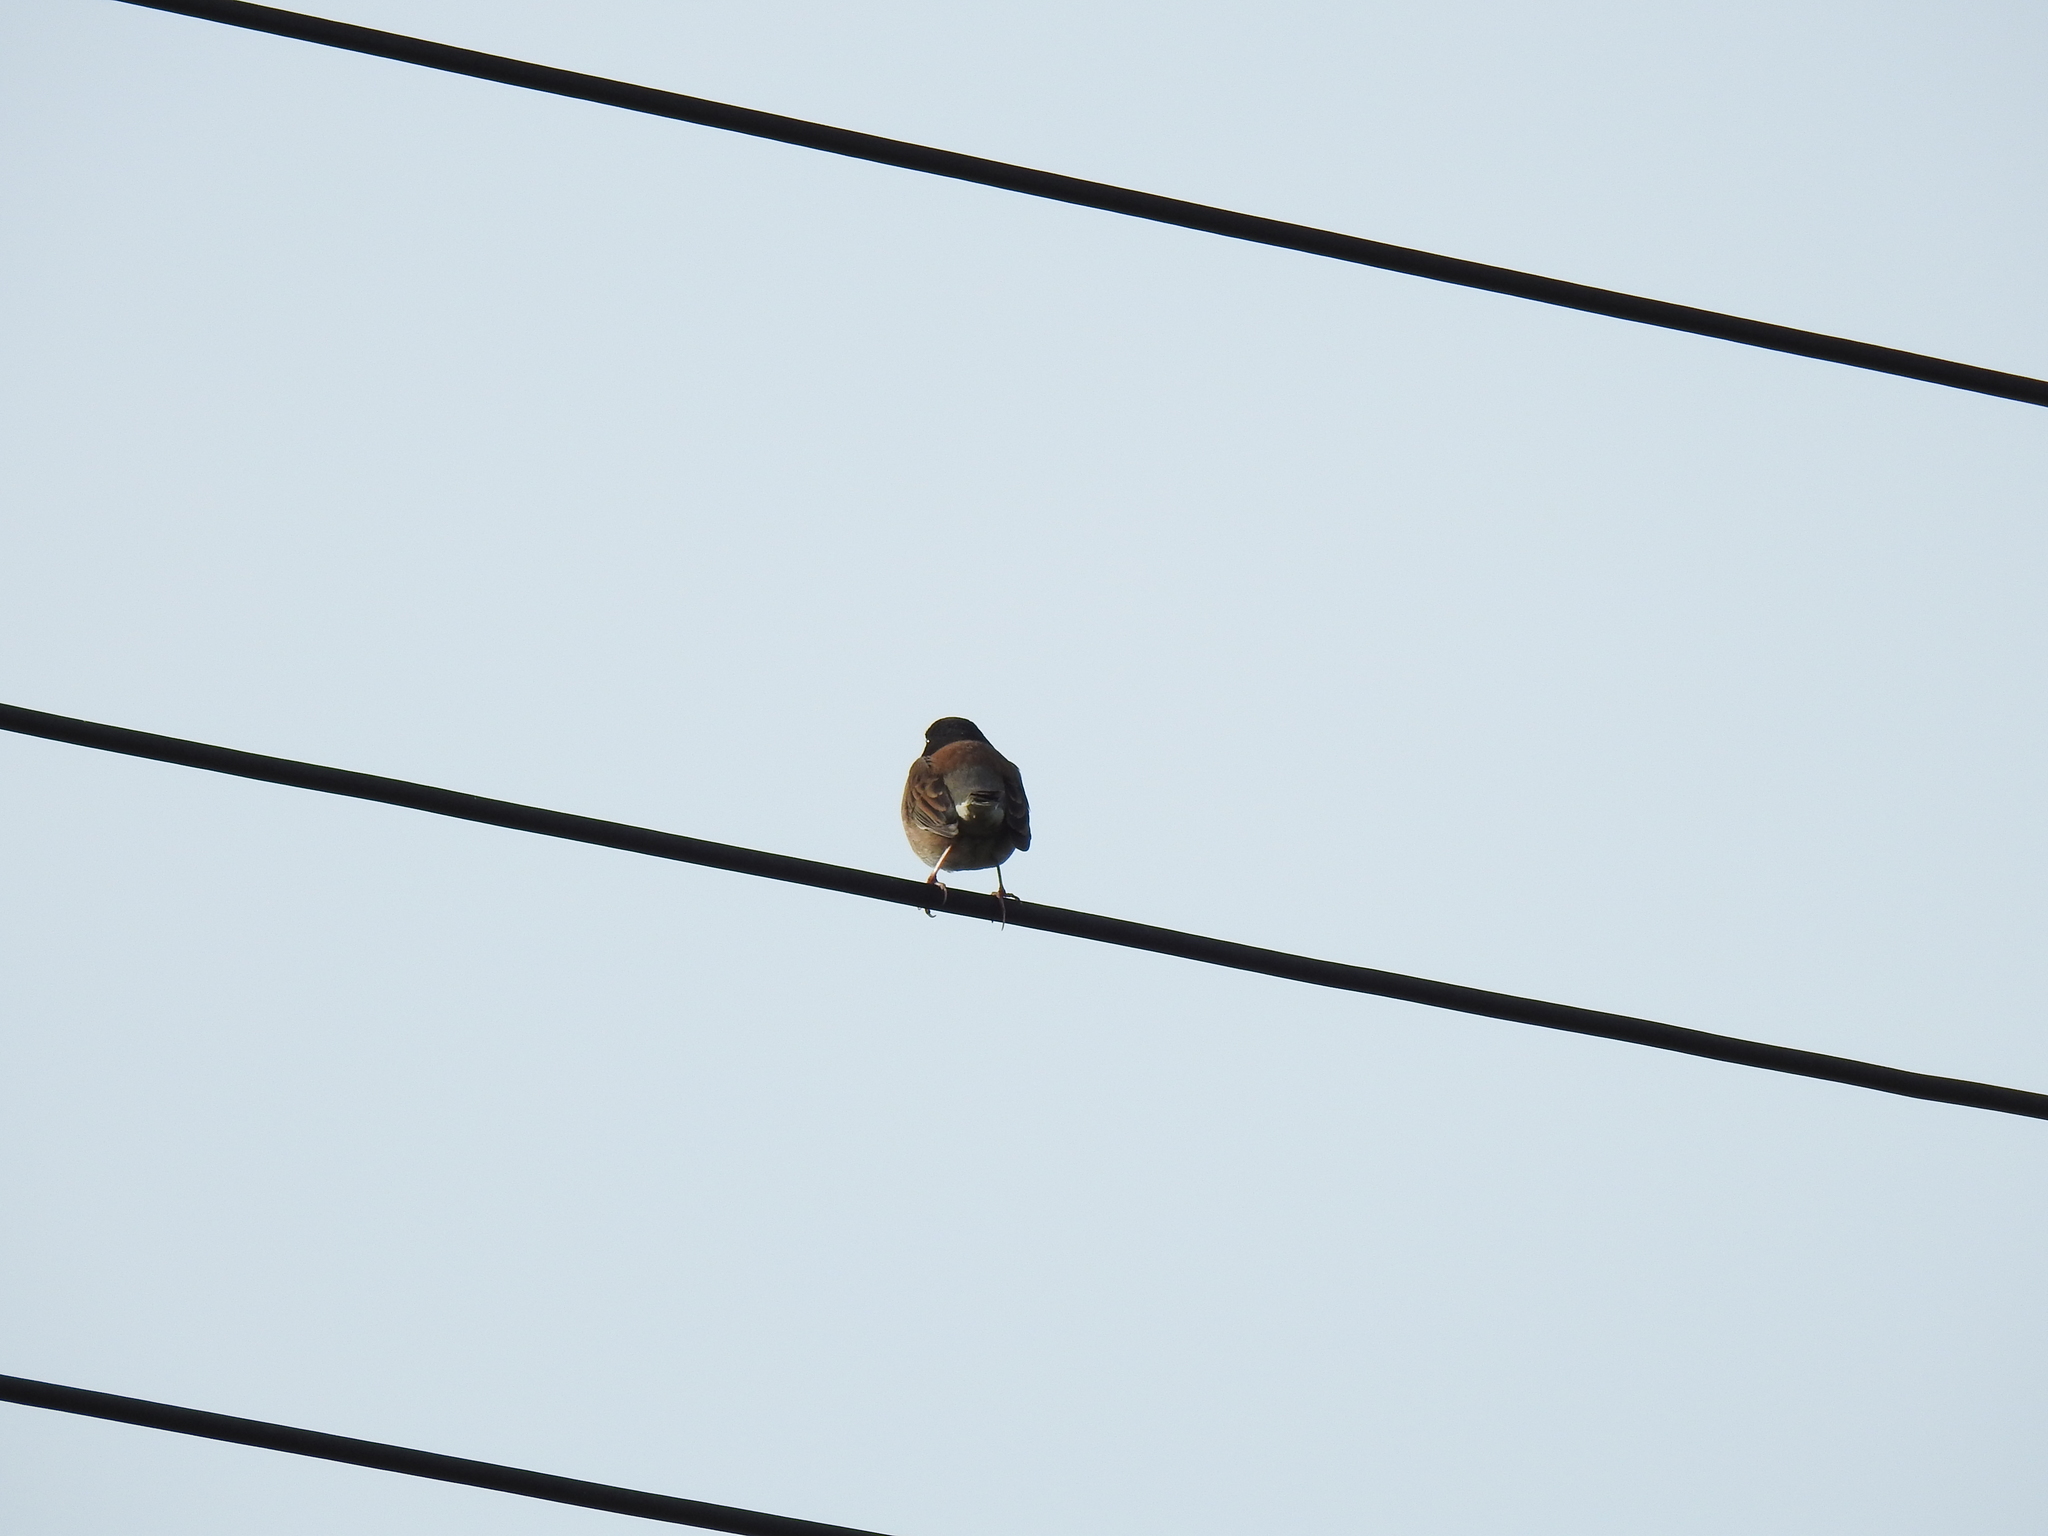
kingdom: Animalia
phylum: Chordata
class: Aves
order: Passeriformes
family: Passerellidae
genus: Junco
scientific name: Junco hyemalis
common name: Dark-eyed junco
